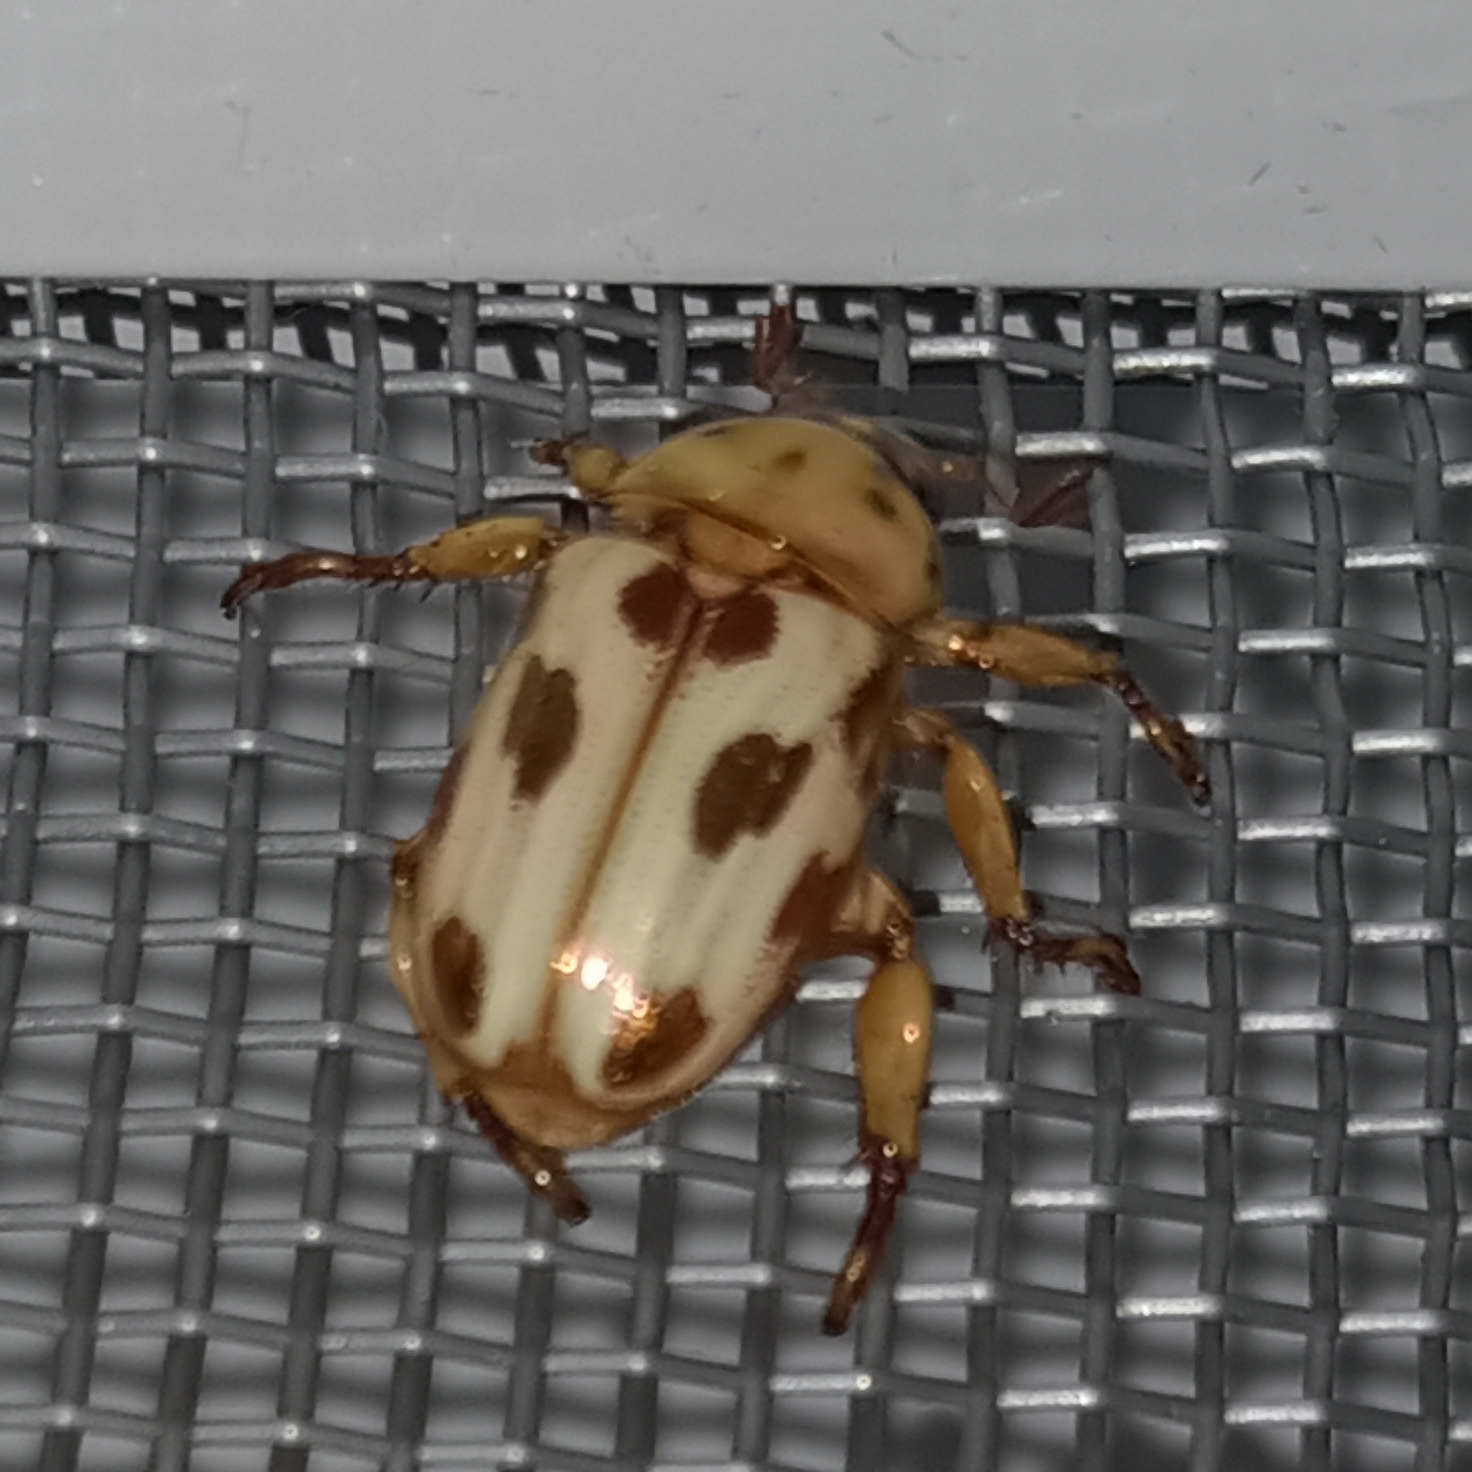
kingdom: Animalia
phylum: Arthropoda
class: Insecta
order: Coleoptera
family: Scarabaeidae
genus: Pelidnota
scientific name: Pelidnota gracilis
